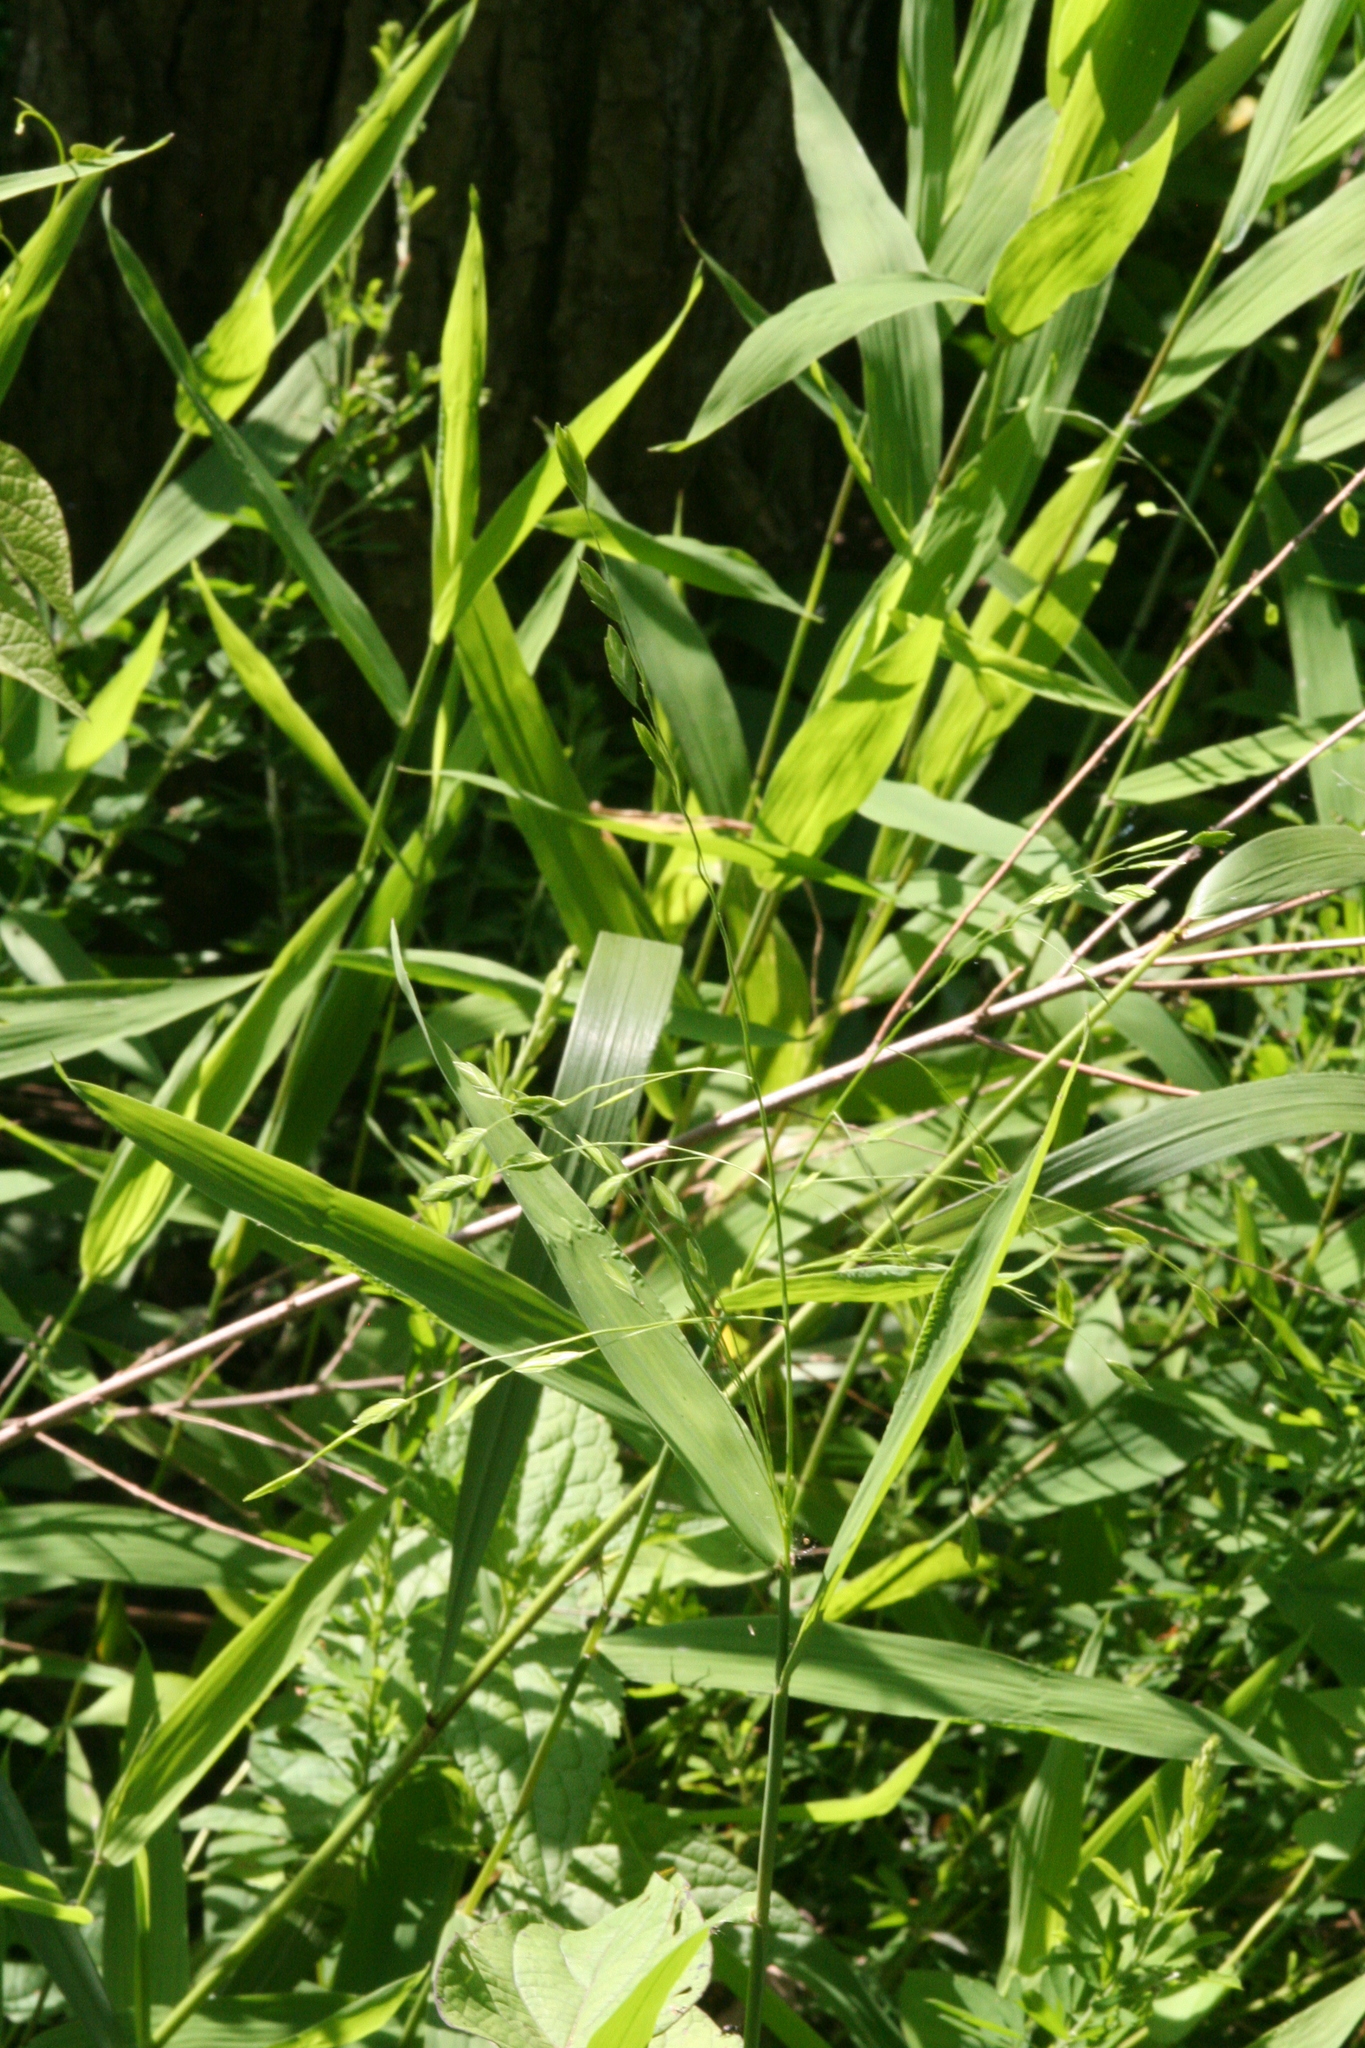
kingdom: Plantae
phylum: Tracheophyta
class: Liliopsida
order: Poales
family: Poaceae
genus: Chasmanthium
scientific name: Chasmanthium latifolium
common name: Broad-leaved chasmanthium
